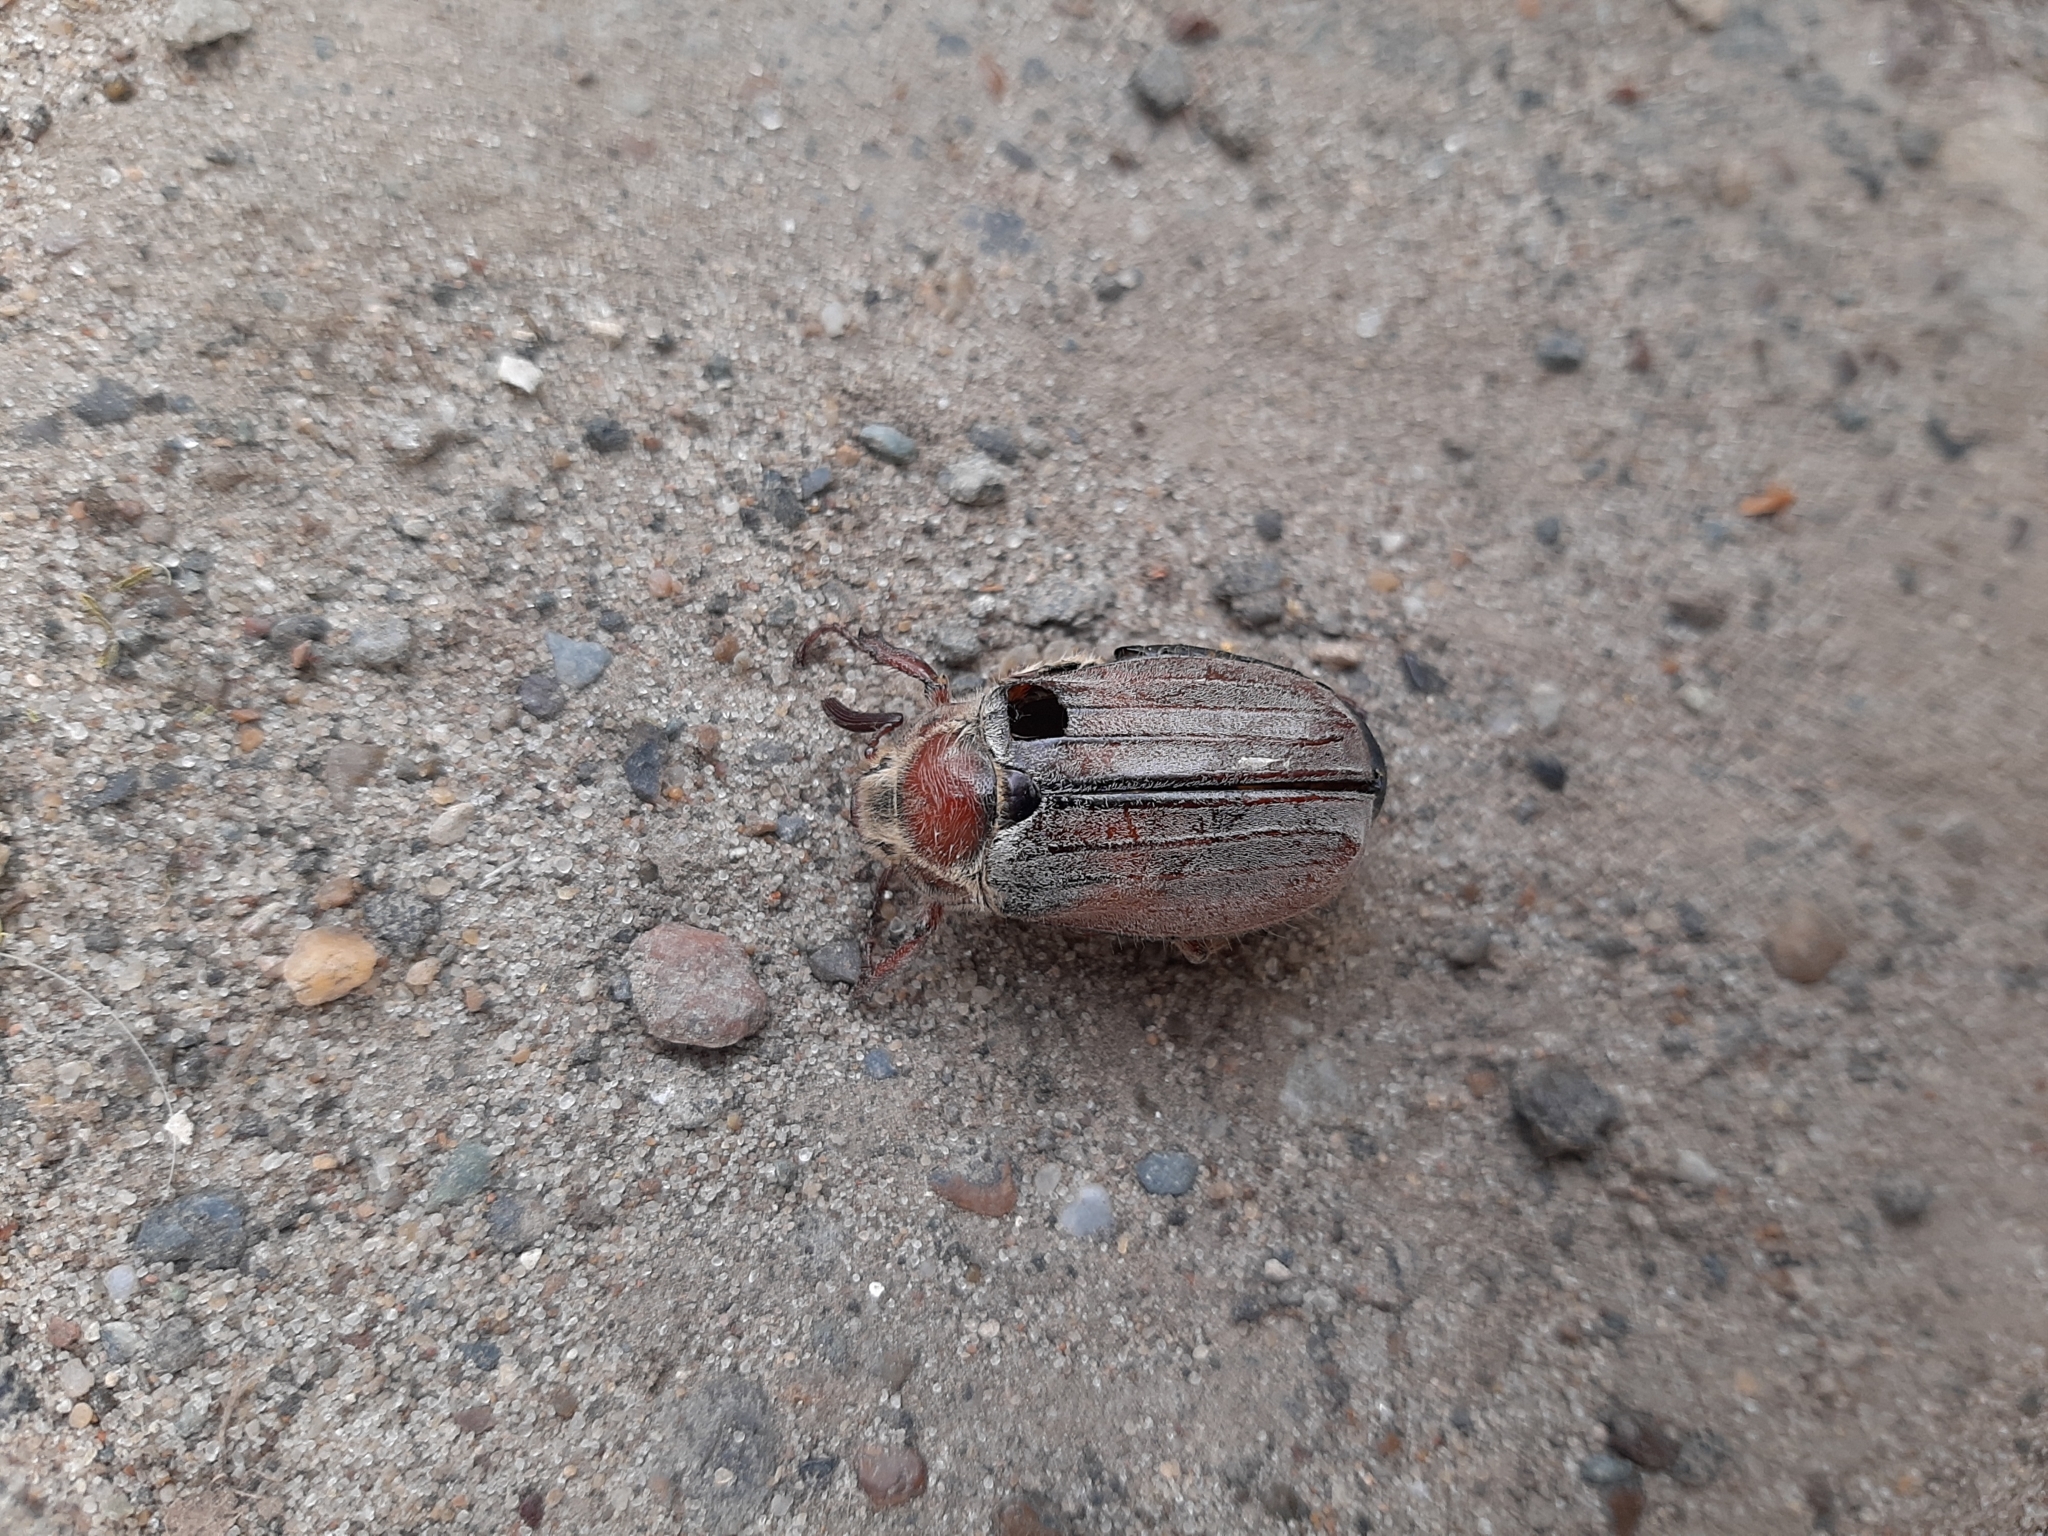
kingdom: Animalia
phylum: Arthropoda
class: Insecta
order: Coleoptera
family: Scarabaeidae
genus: Melolontha
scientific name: Melolontha hippocastani
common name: Chestnut cockchafer
